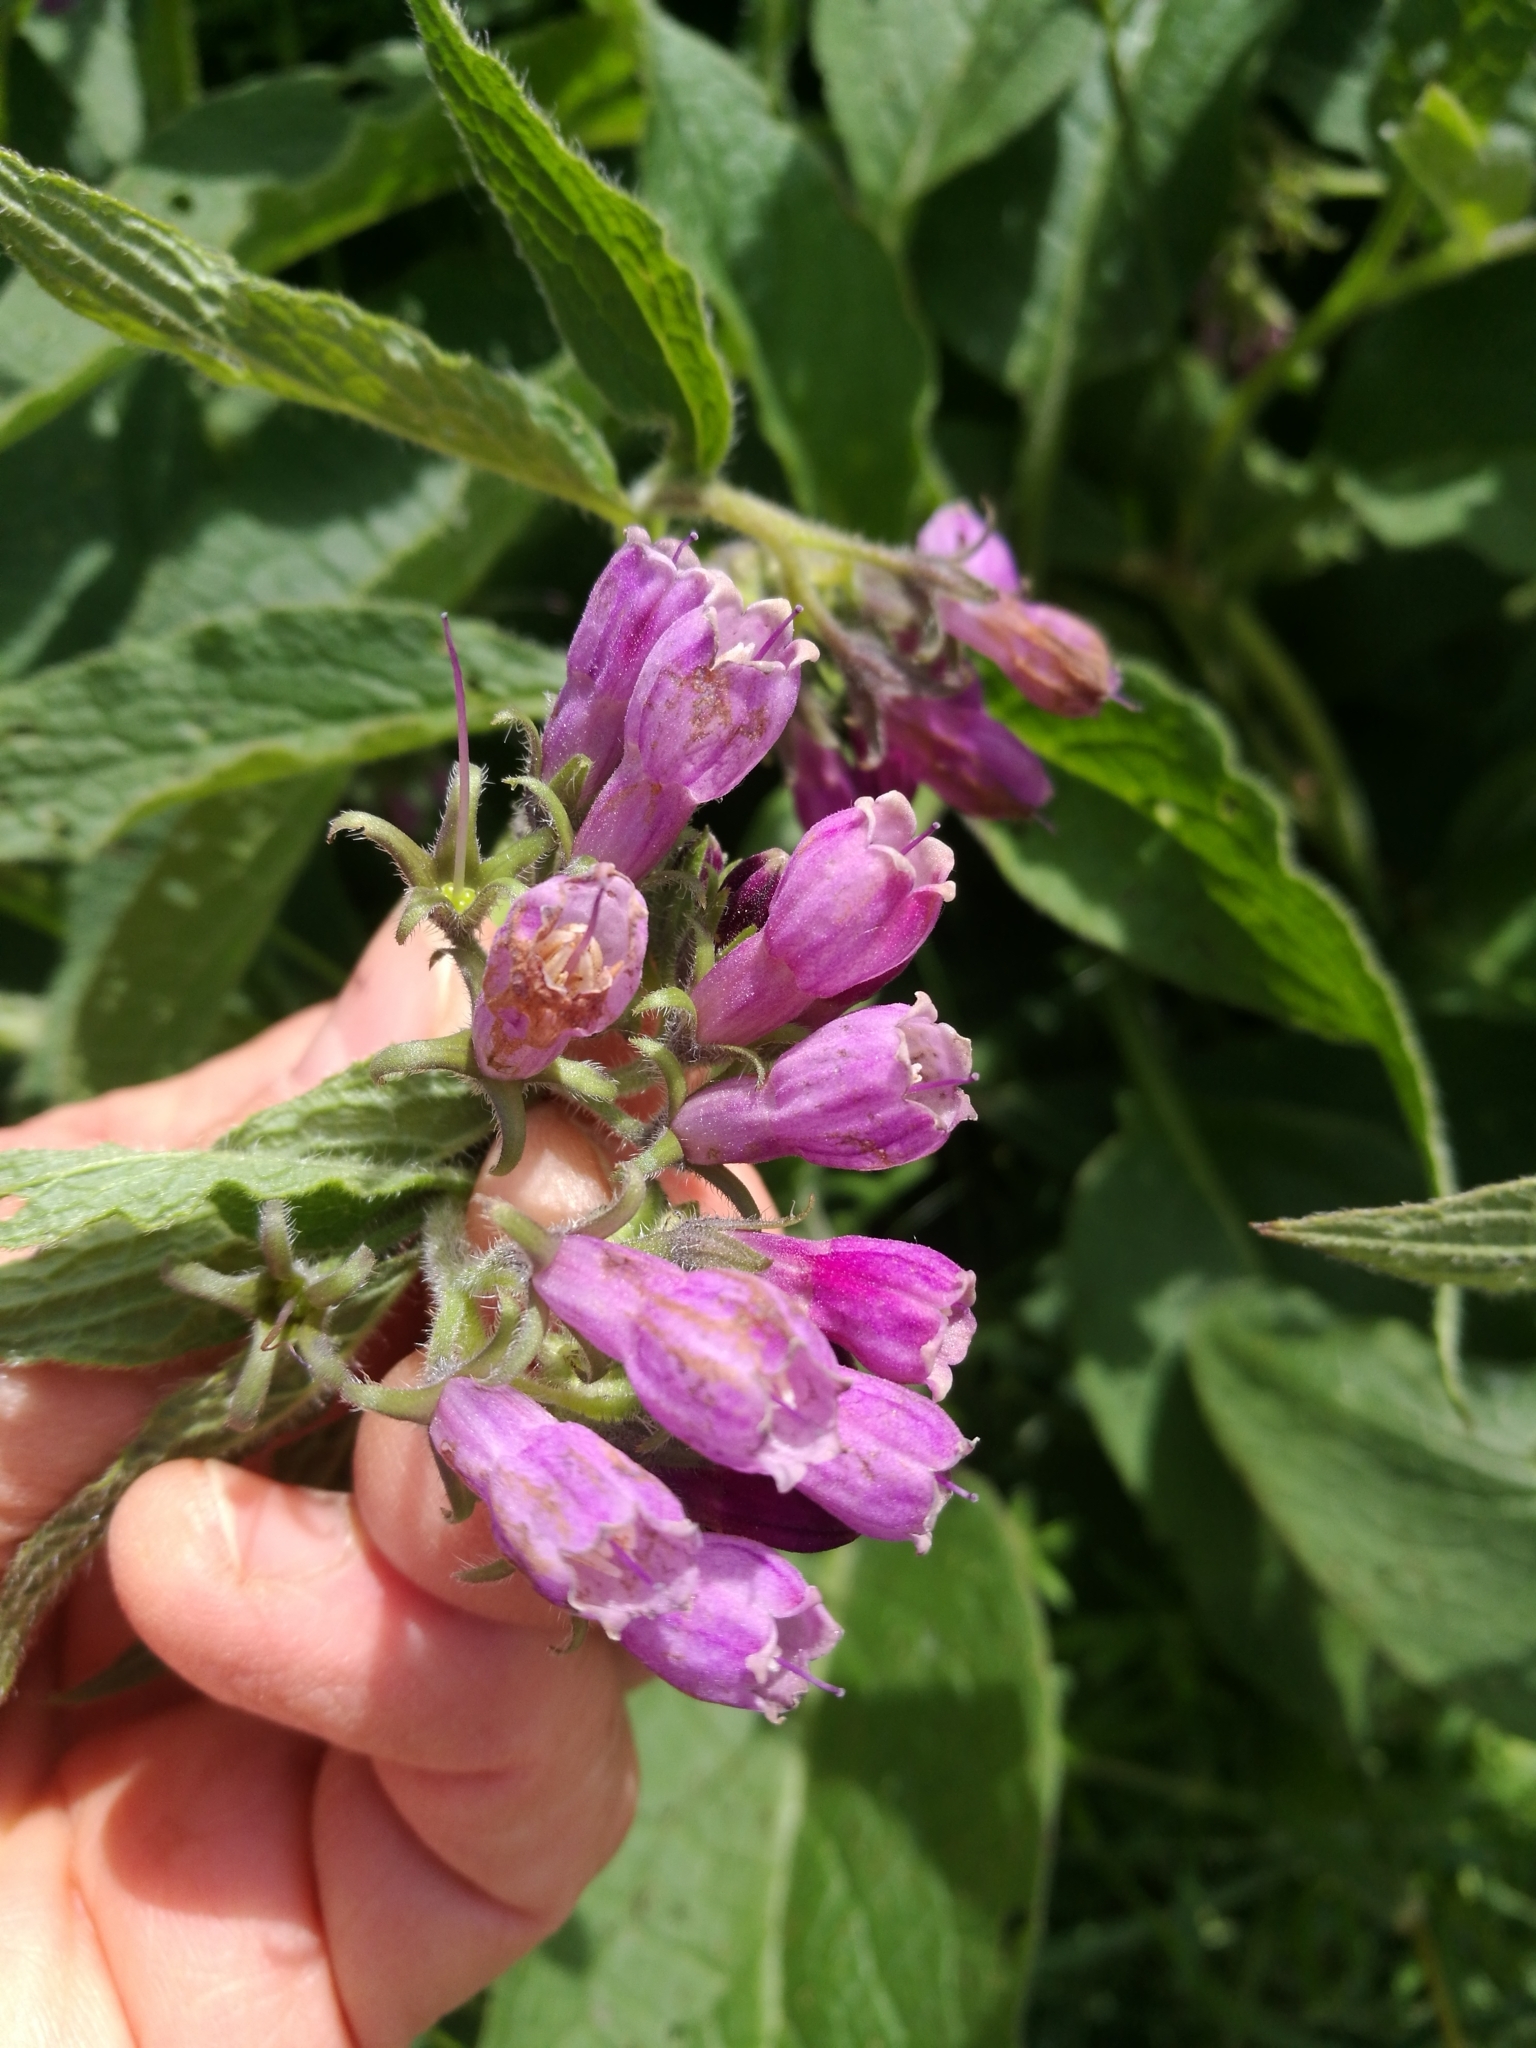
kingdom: Plantae
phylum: Tracheophyta
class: Magnoliopsida
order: Boraginales
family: Boraginaceae
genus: Symphytum
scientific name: Symphytum officinale
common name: Common comfrey
